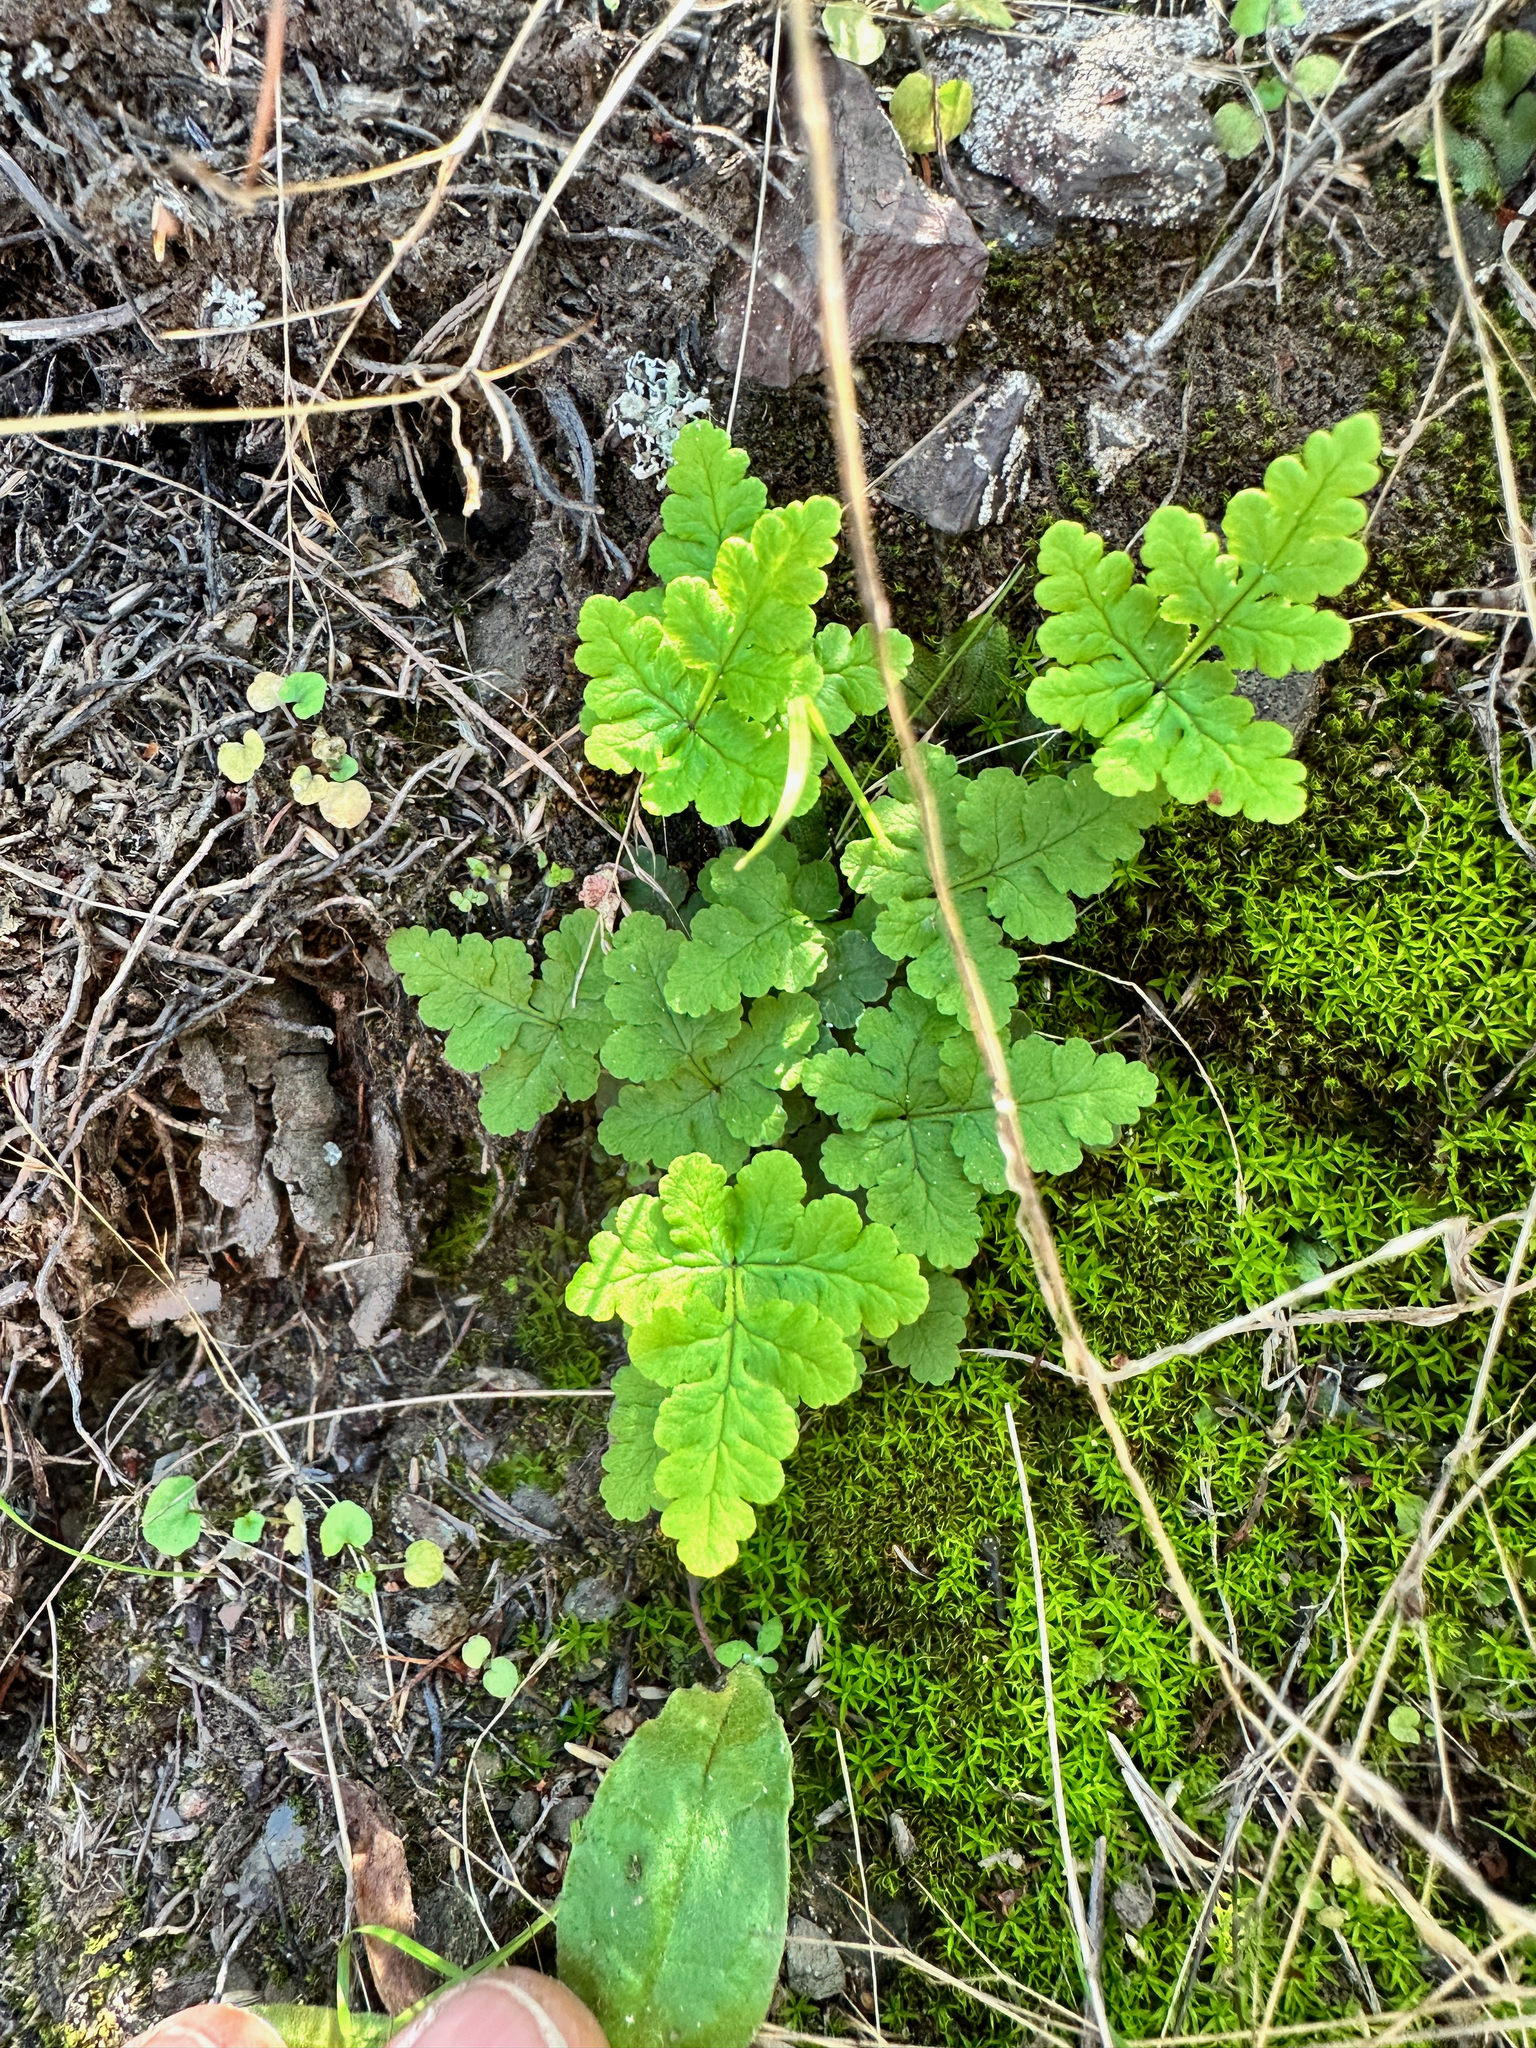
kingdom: Plantae
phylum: Tracheophyta
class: Polypodiopsida
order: Polypodiales
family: Pteridaceae
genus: Pentagramma
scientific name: Pentagramma triangularis
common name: Gold fern
